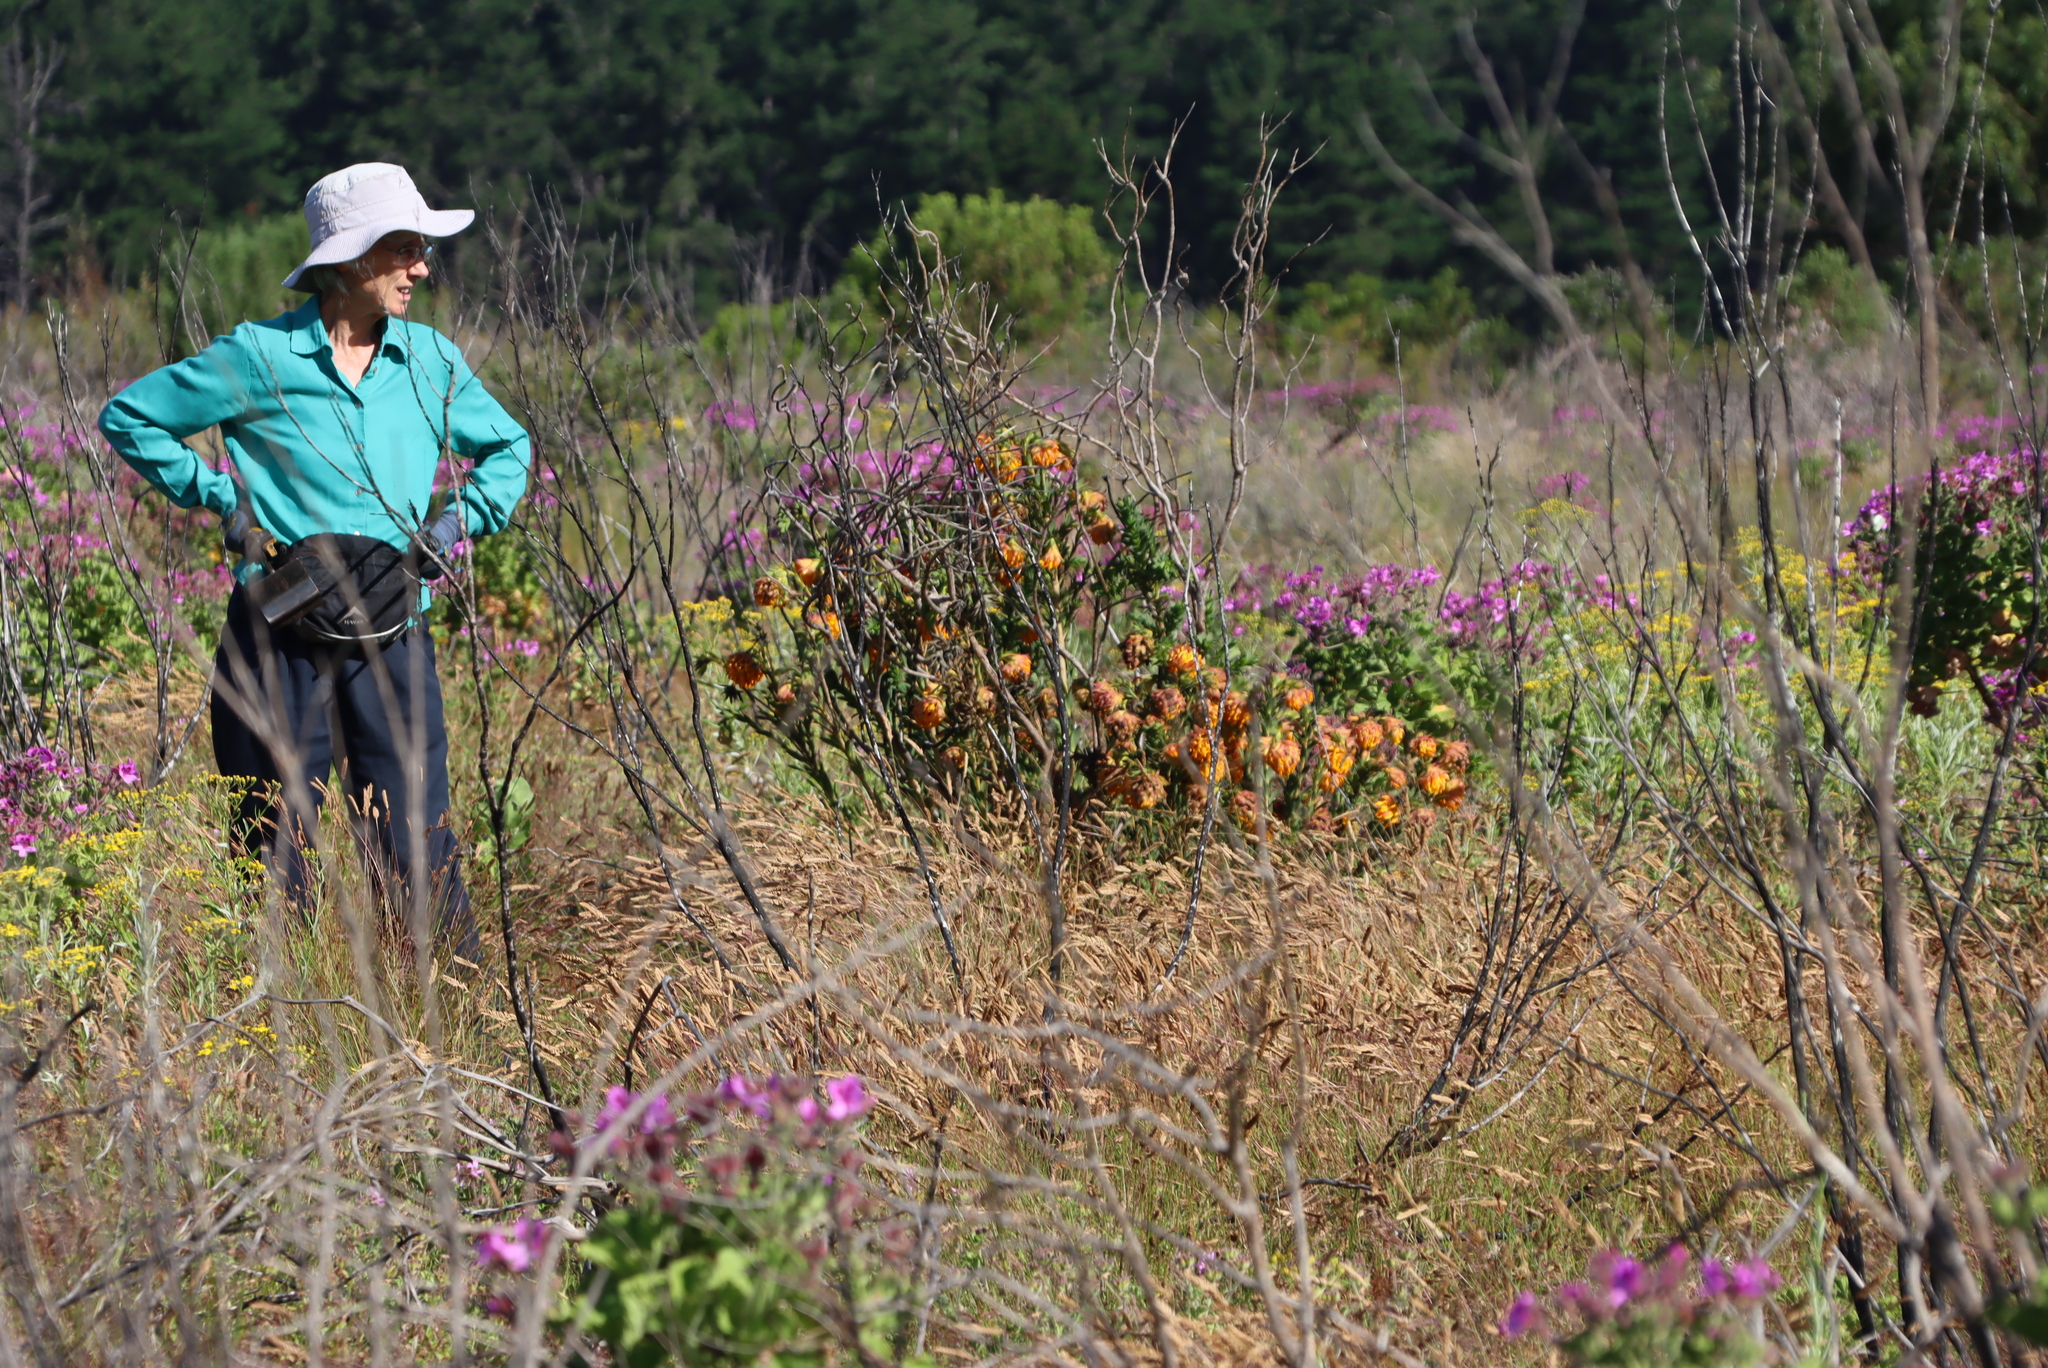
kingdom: Plantae
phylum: Tracheophyta
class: Magnoliopsida
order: Fabales
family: Fabaceae
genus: Liparia
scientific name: Liparia splendens
